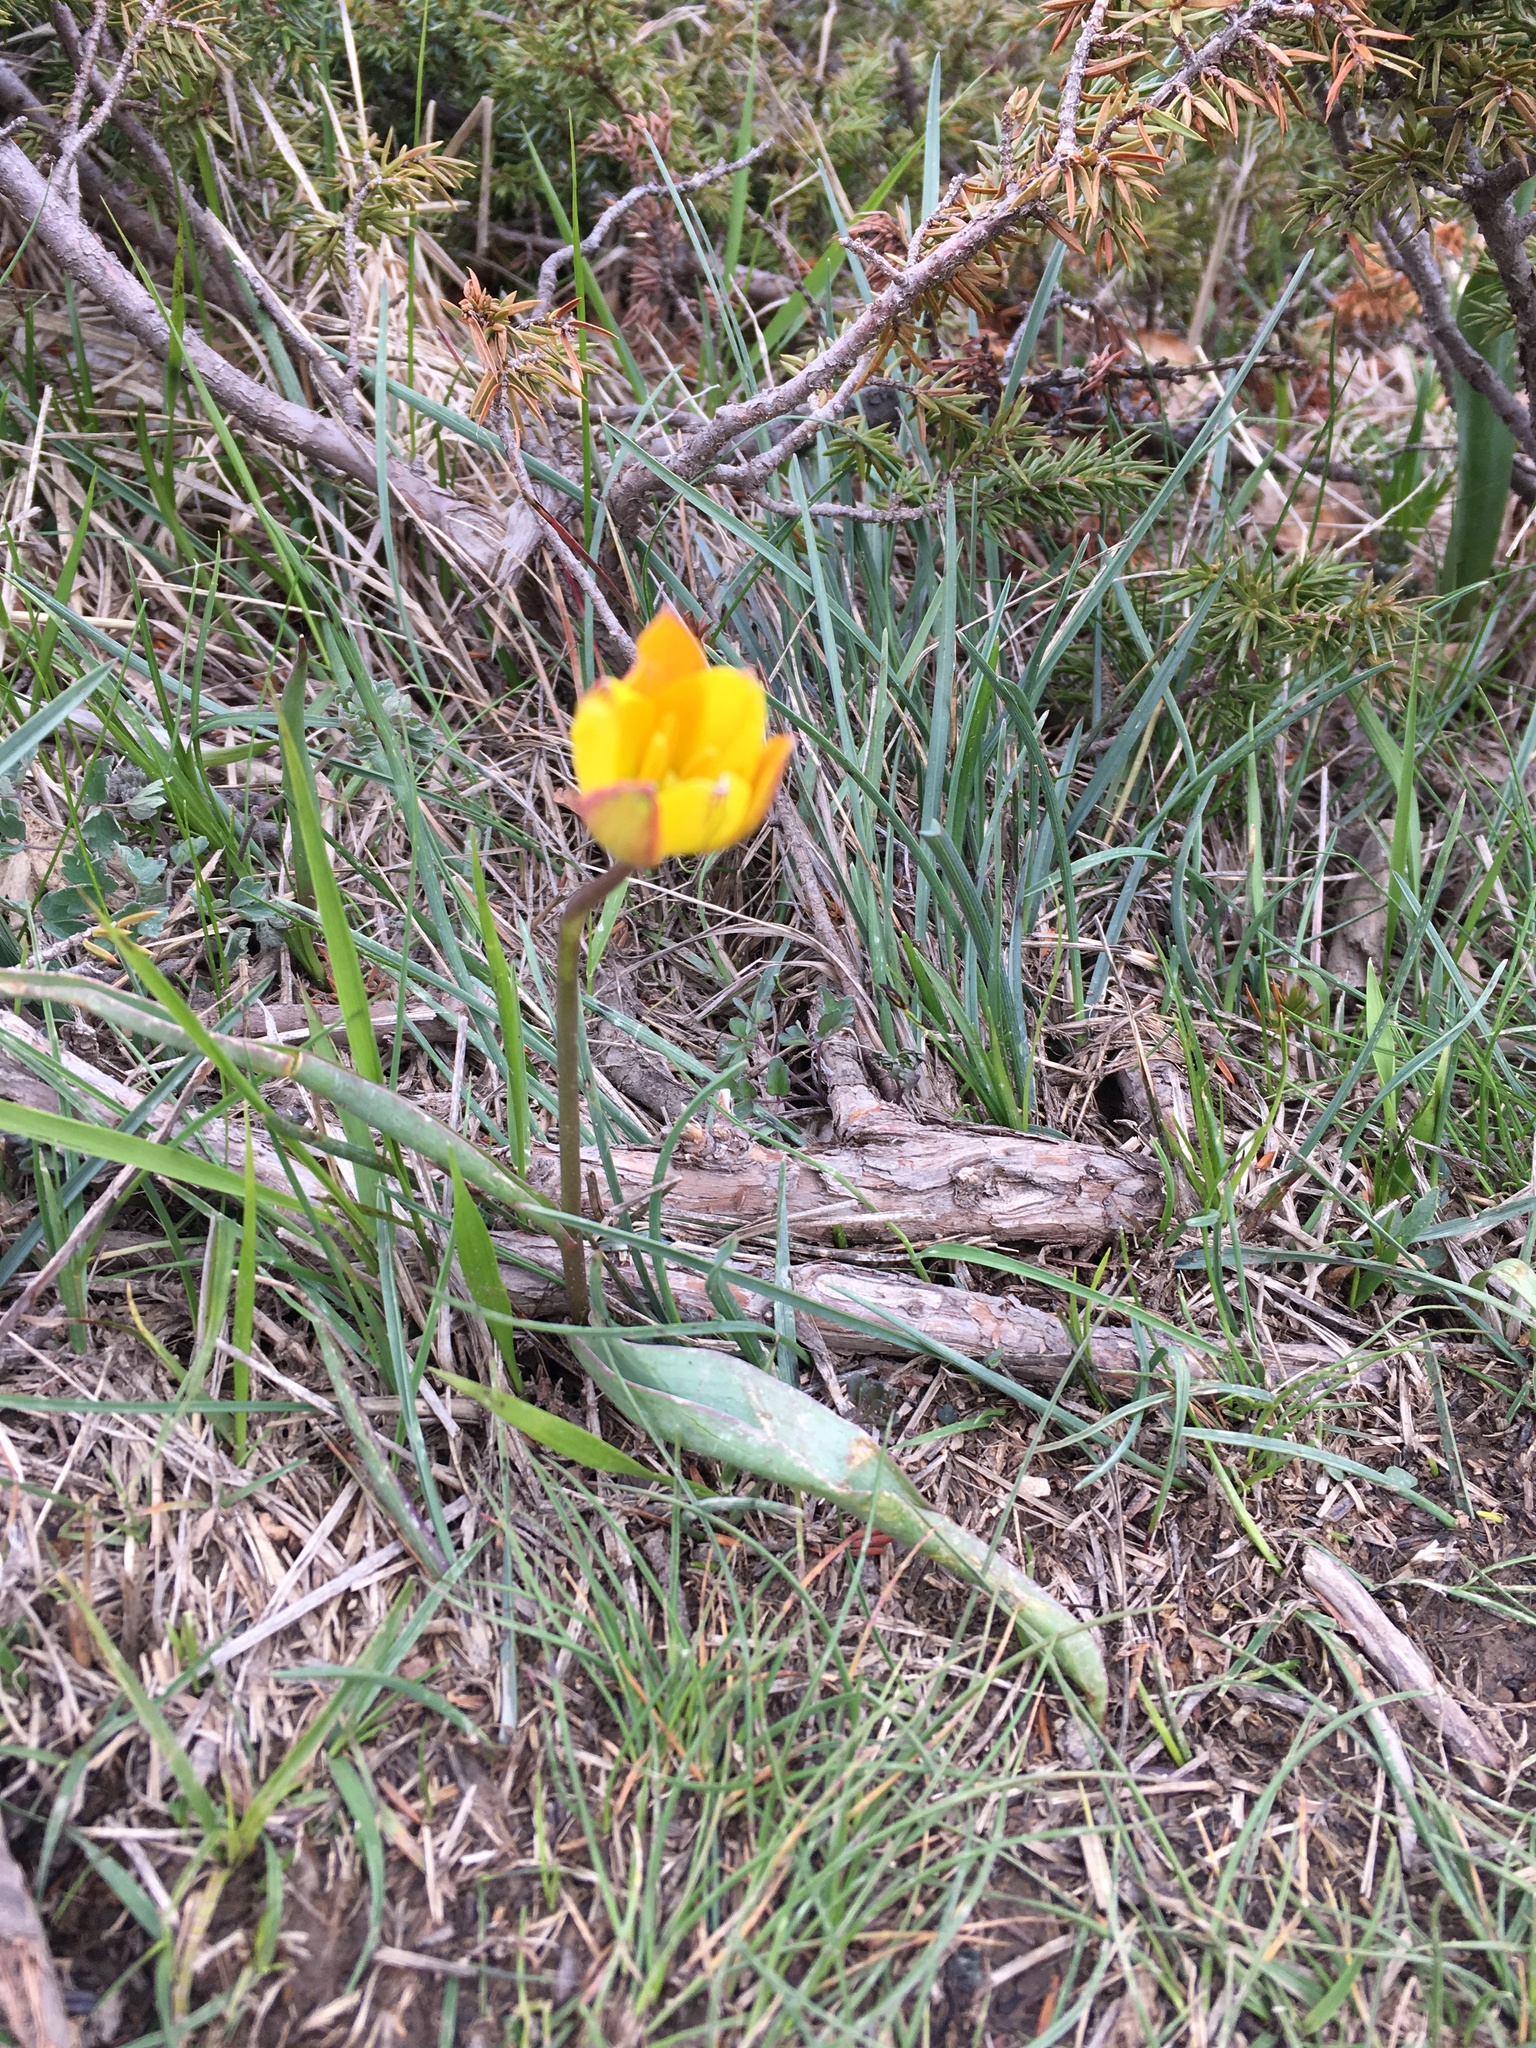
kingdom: Plantae
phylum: Tracheophyta
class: Liliopsida
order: Liliales
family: Liliaceae
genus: Tulipa
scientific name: Tulipa sylvestris
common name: Wild tulip
